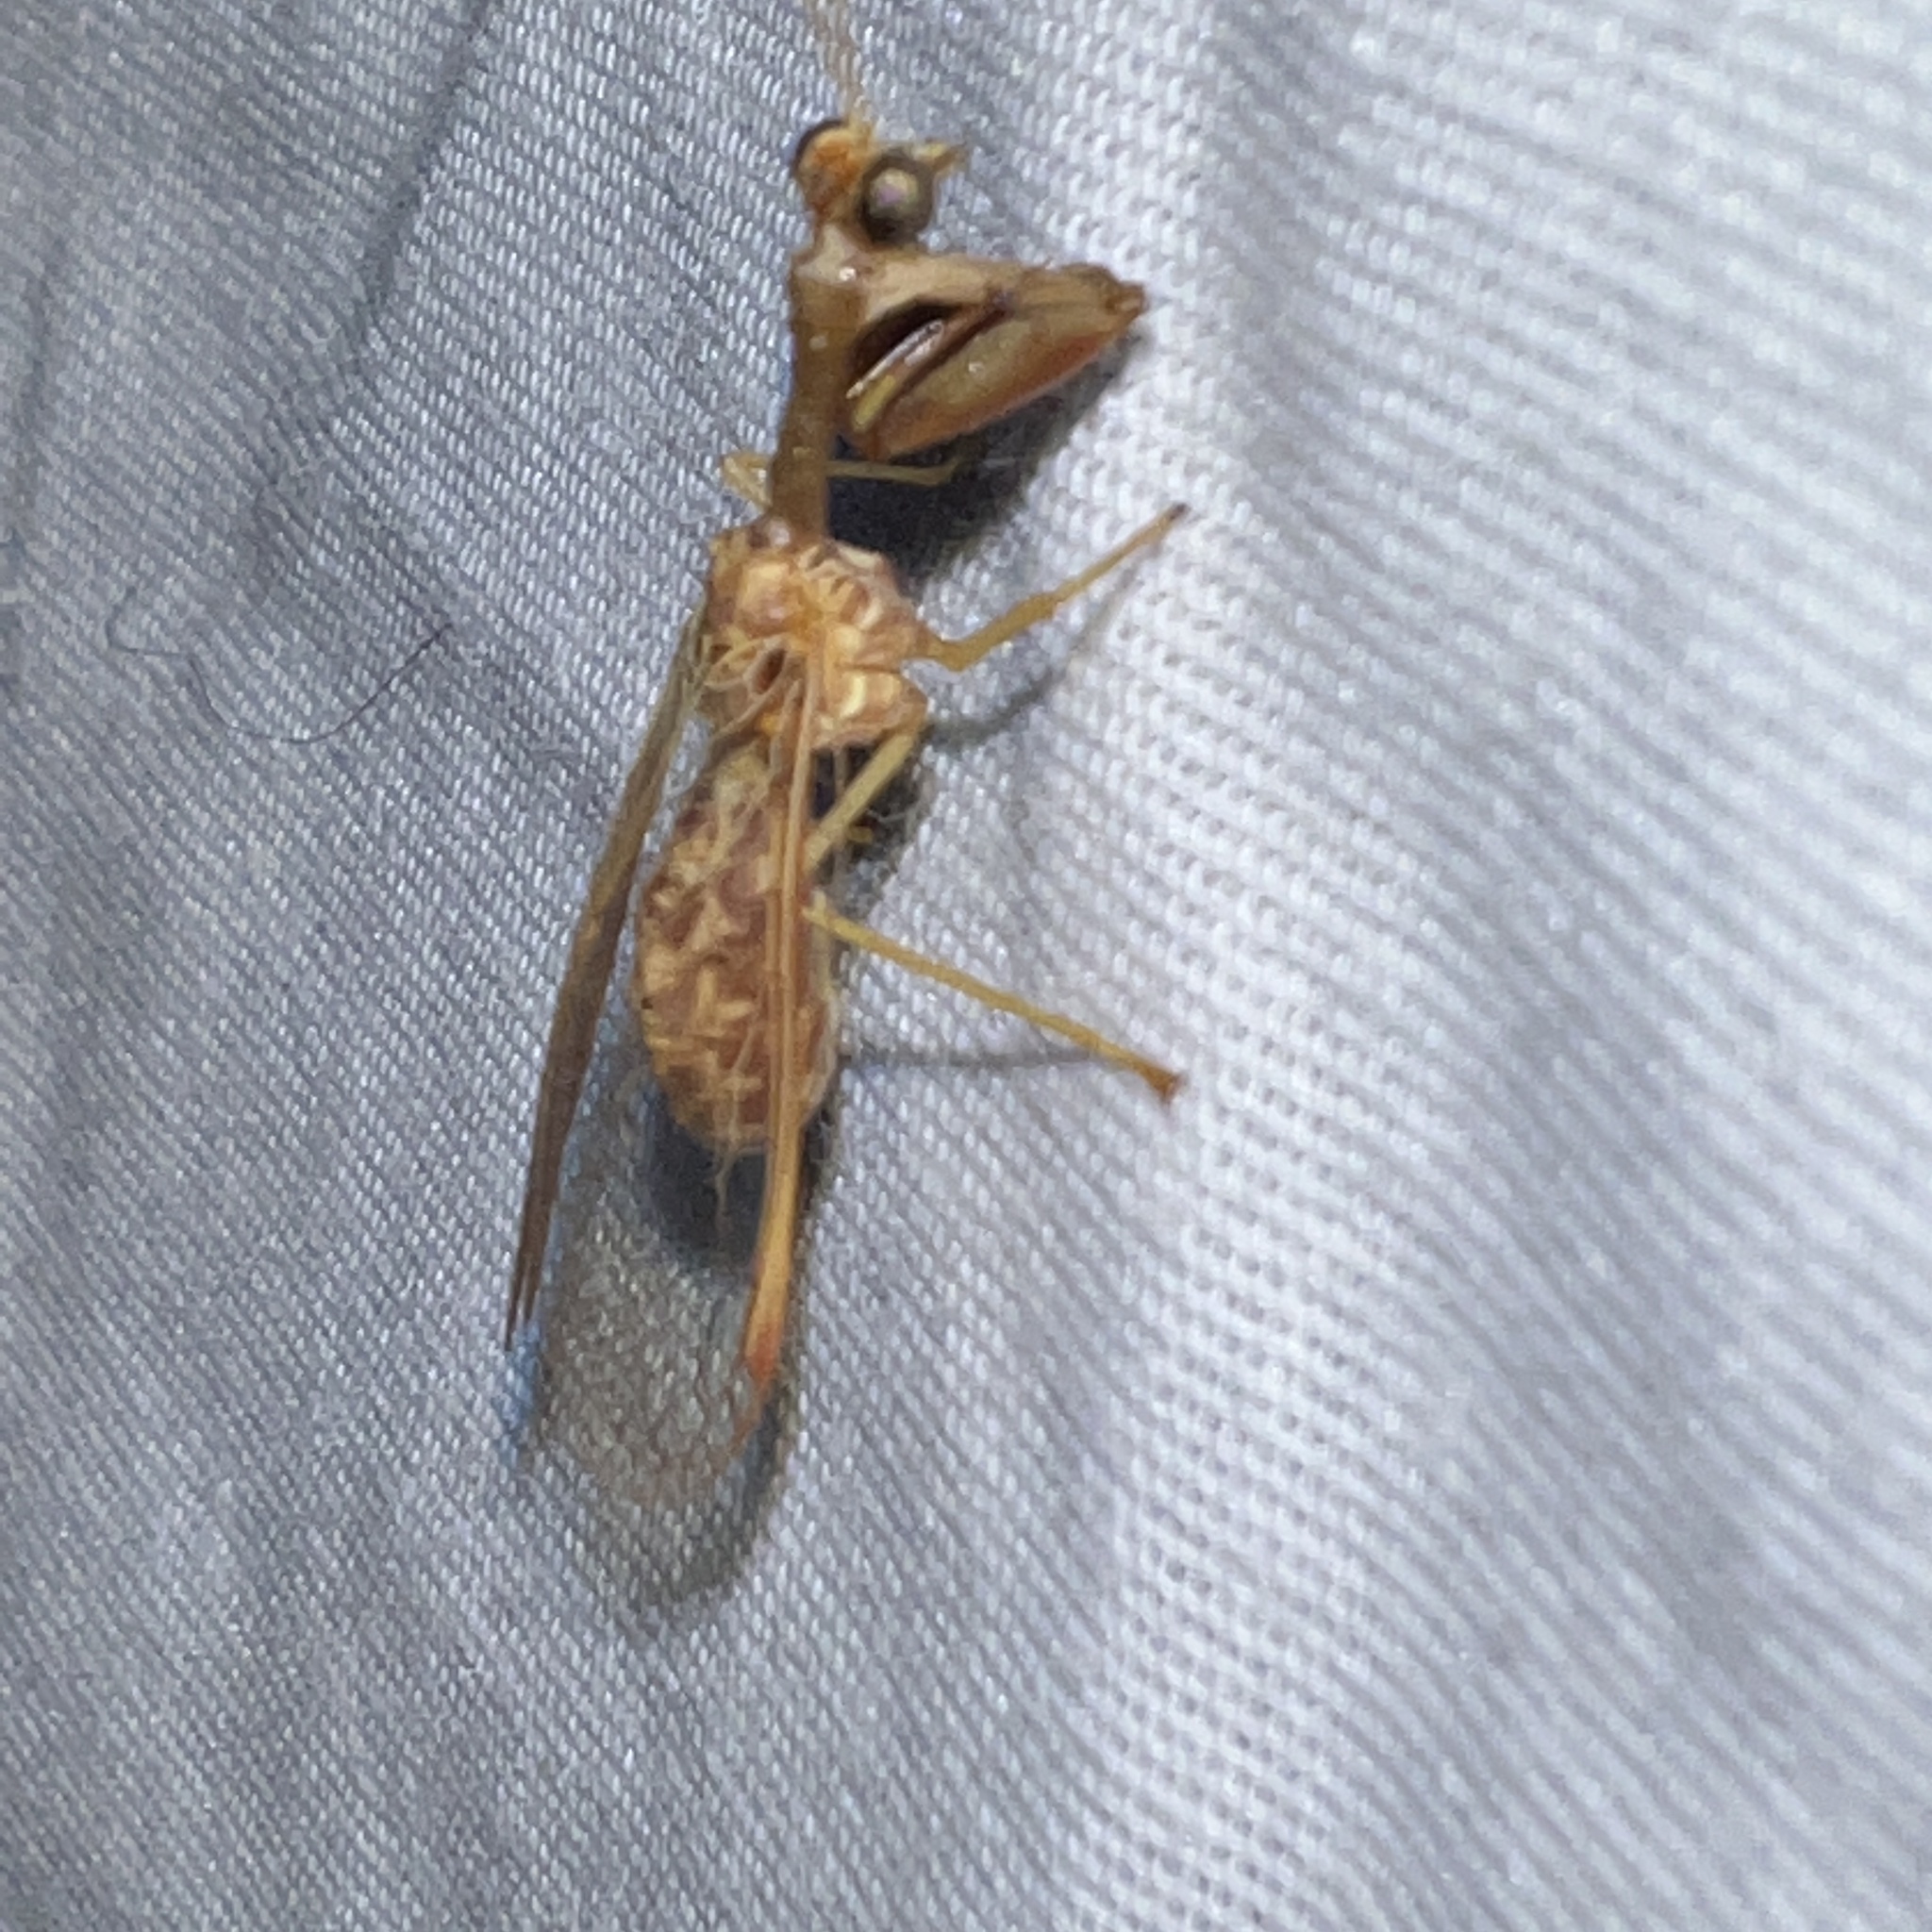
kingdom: Animalia
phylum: Arthropoda
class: Insecta
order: Neuroptera
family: Mantispidae
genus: Dicromantispa
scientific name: Dicromantispa sayi
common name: Say's mantidfly
